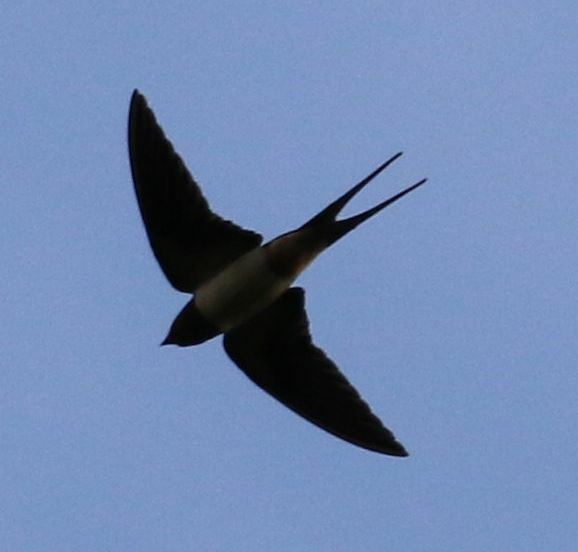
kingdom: Animalia
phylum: Chordata
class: Aves
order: Passeriformes
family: Hirundinidae
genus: Hirundo
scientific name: Hirundo rustica
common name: Barn swallow
